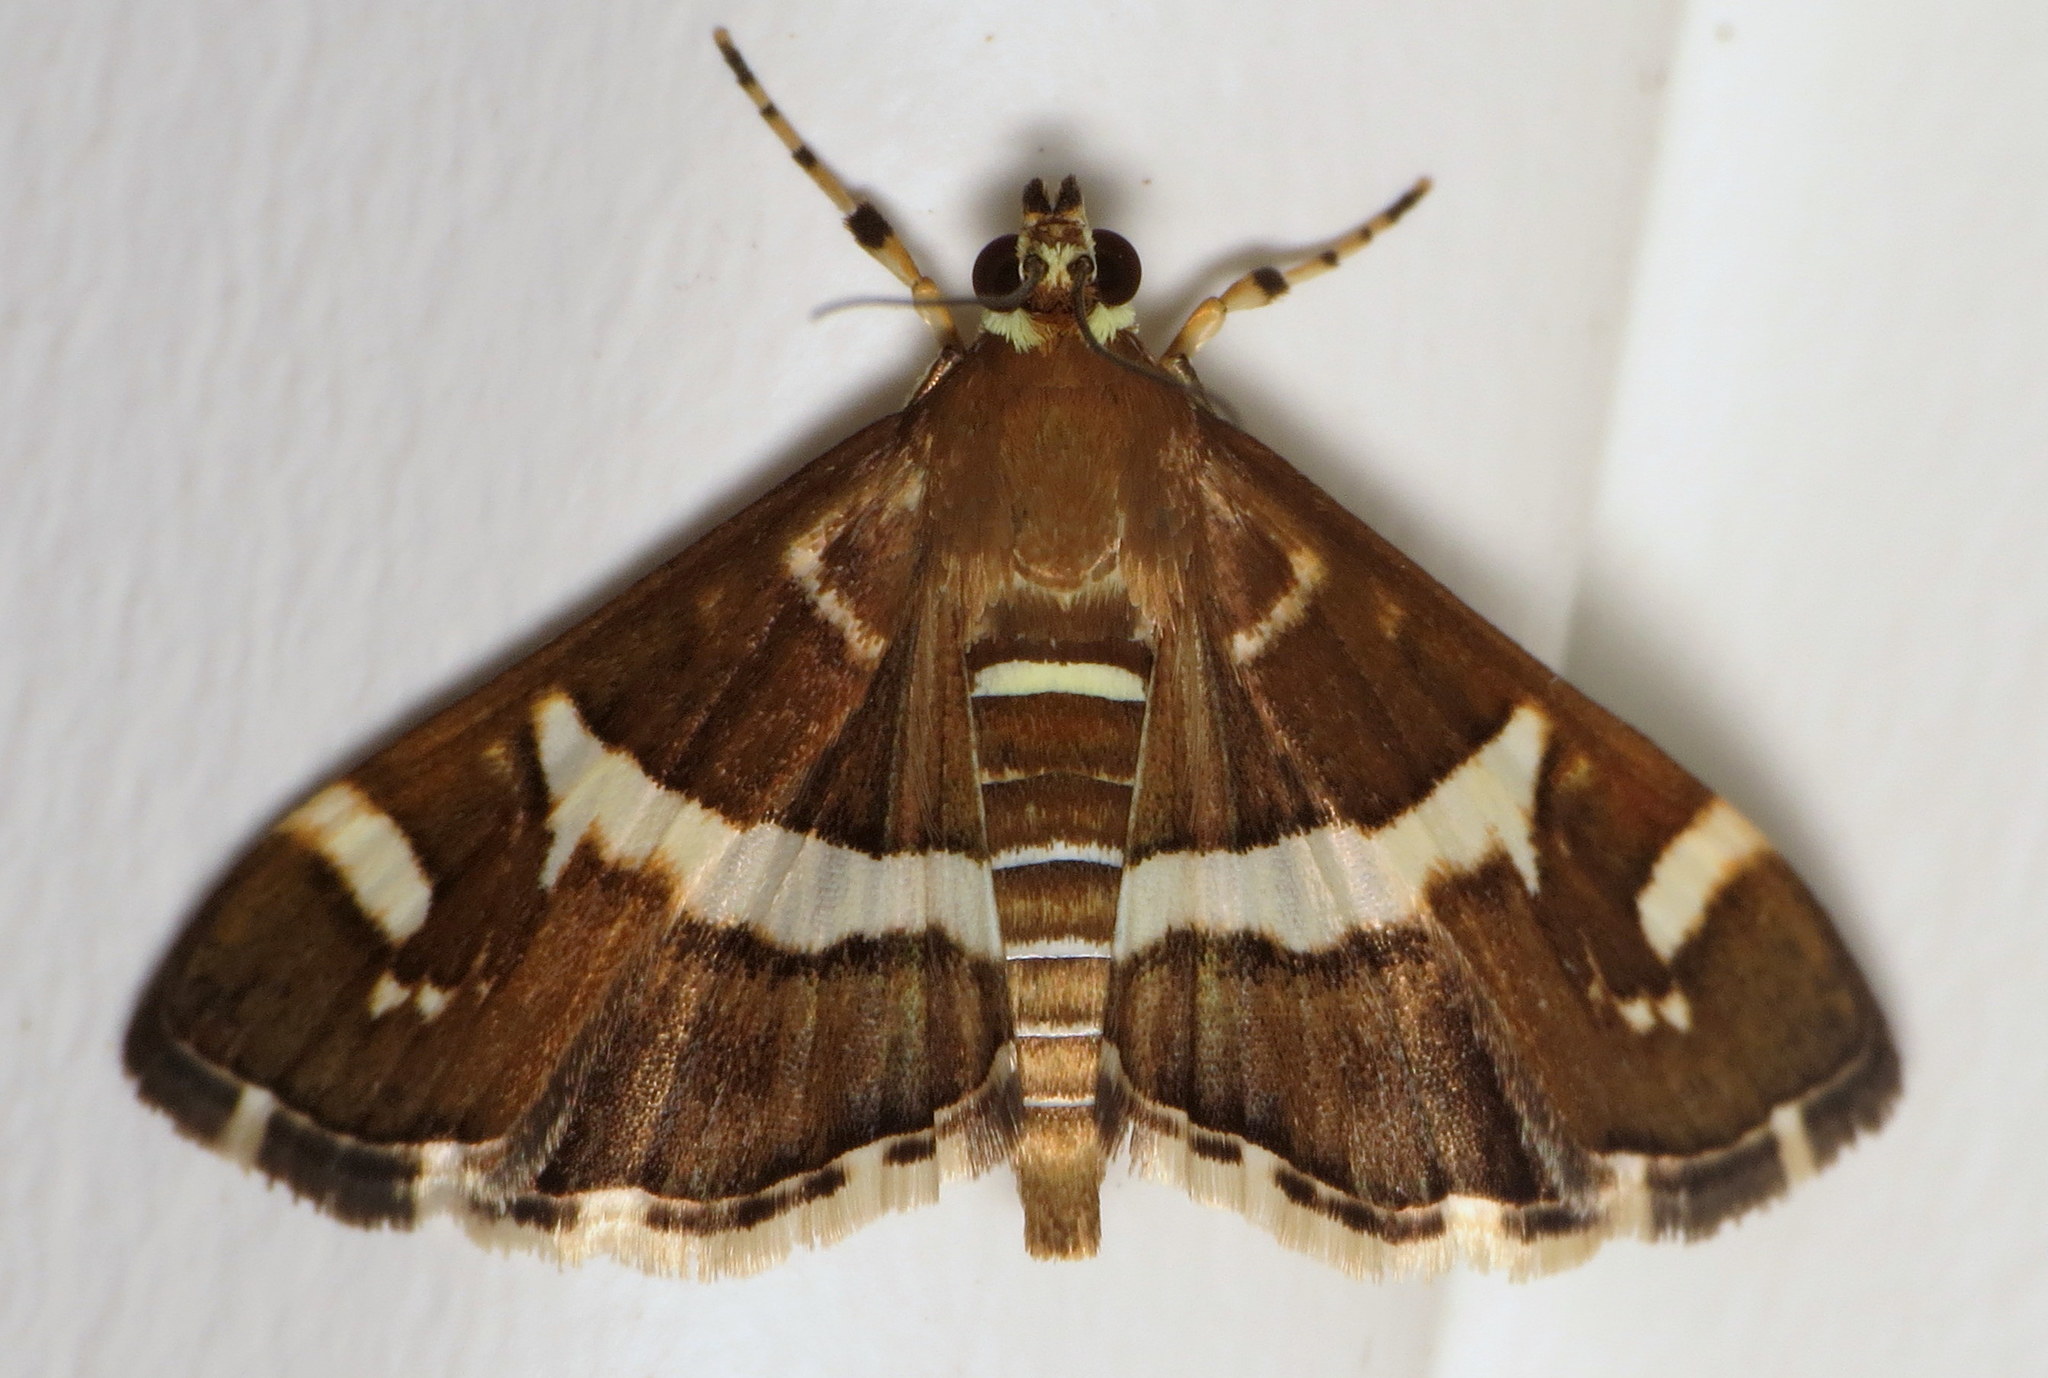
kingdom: Animalia
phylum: Arthropoda
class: Insecta
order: Lepidoptera
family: Crambidae
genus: Spoladea
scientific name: Spoladea recurvalis
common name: Beet webworm moth
